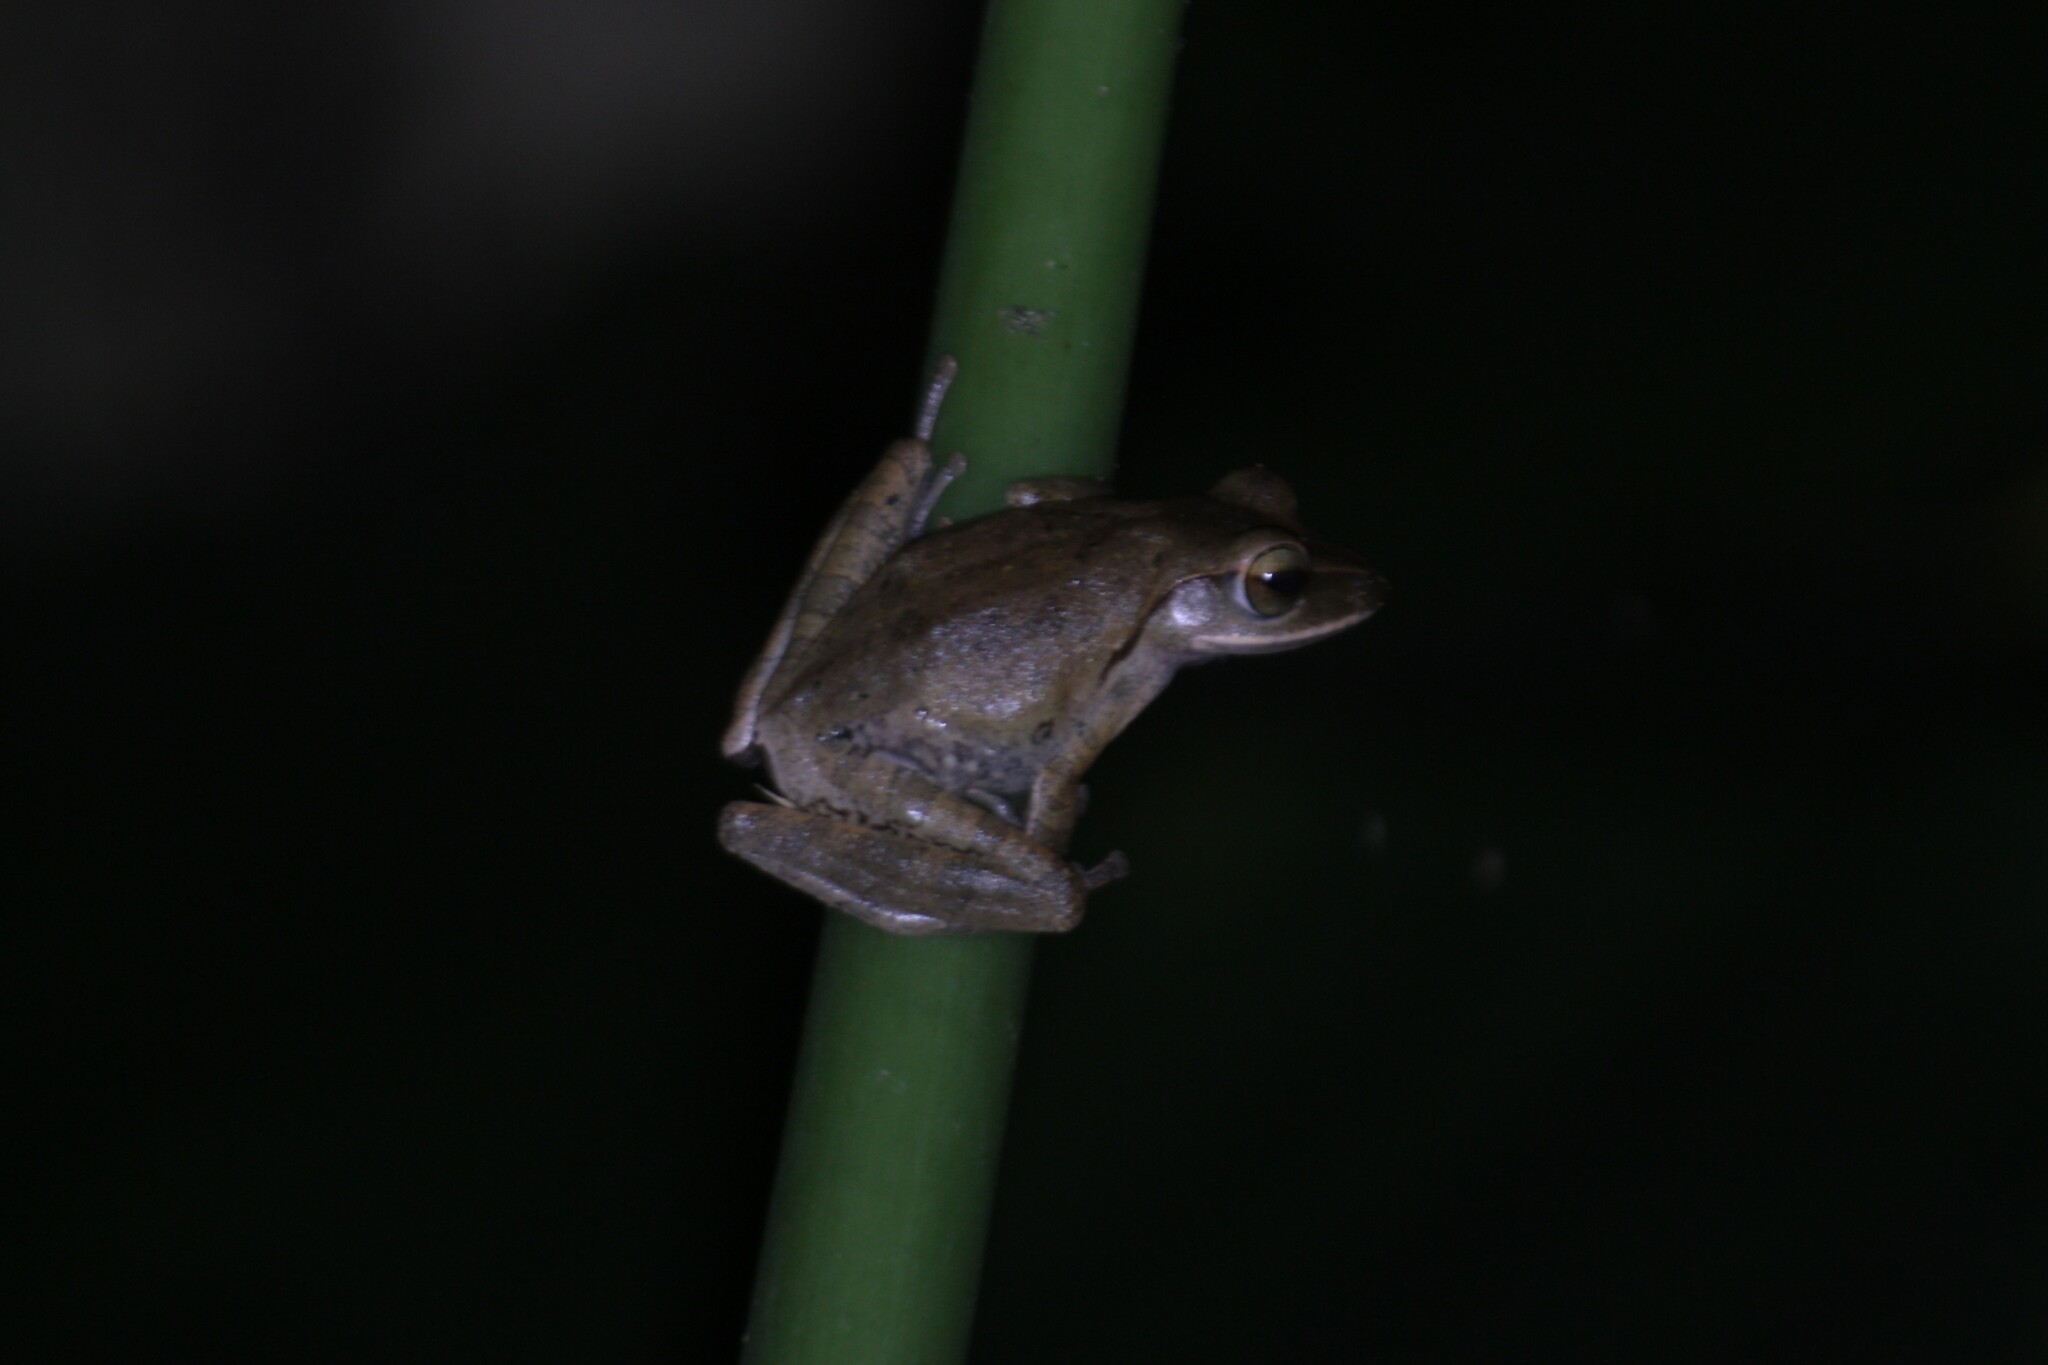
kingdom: Animalia
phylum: Chordata
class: Amphibia
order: Anura
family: Rhacophoridae
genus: Polypedates
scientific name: Polypedates megacephalus
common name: Hong kong whipping frog
